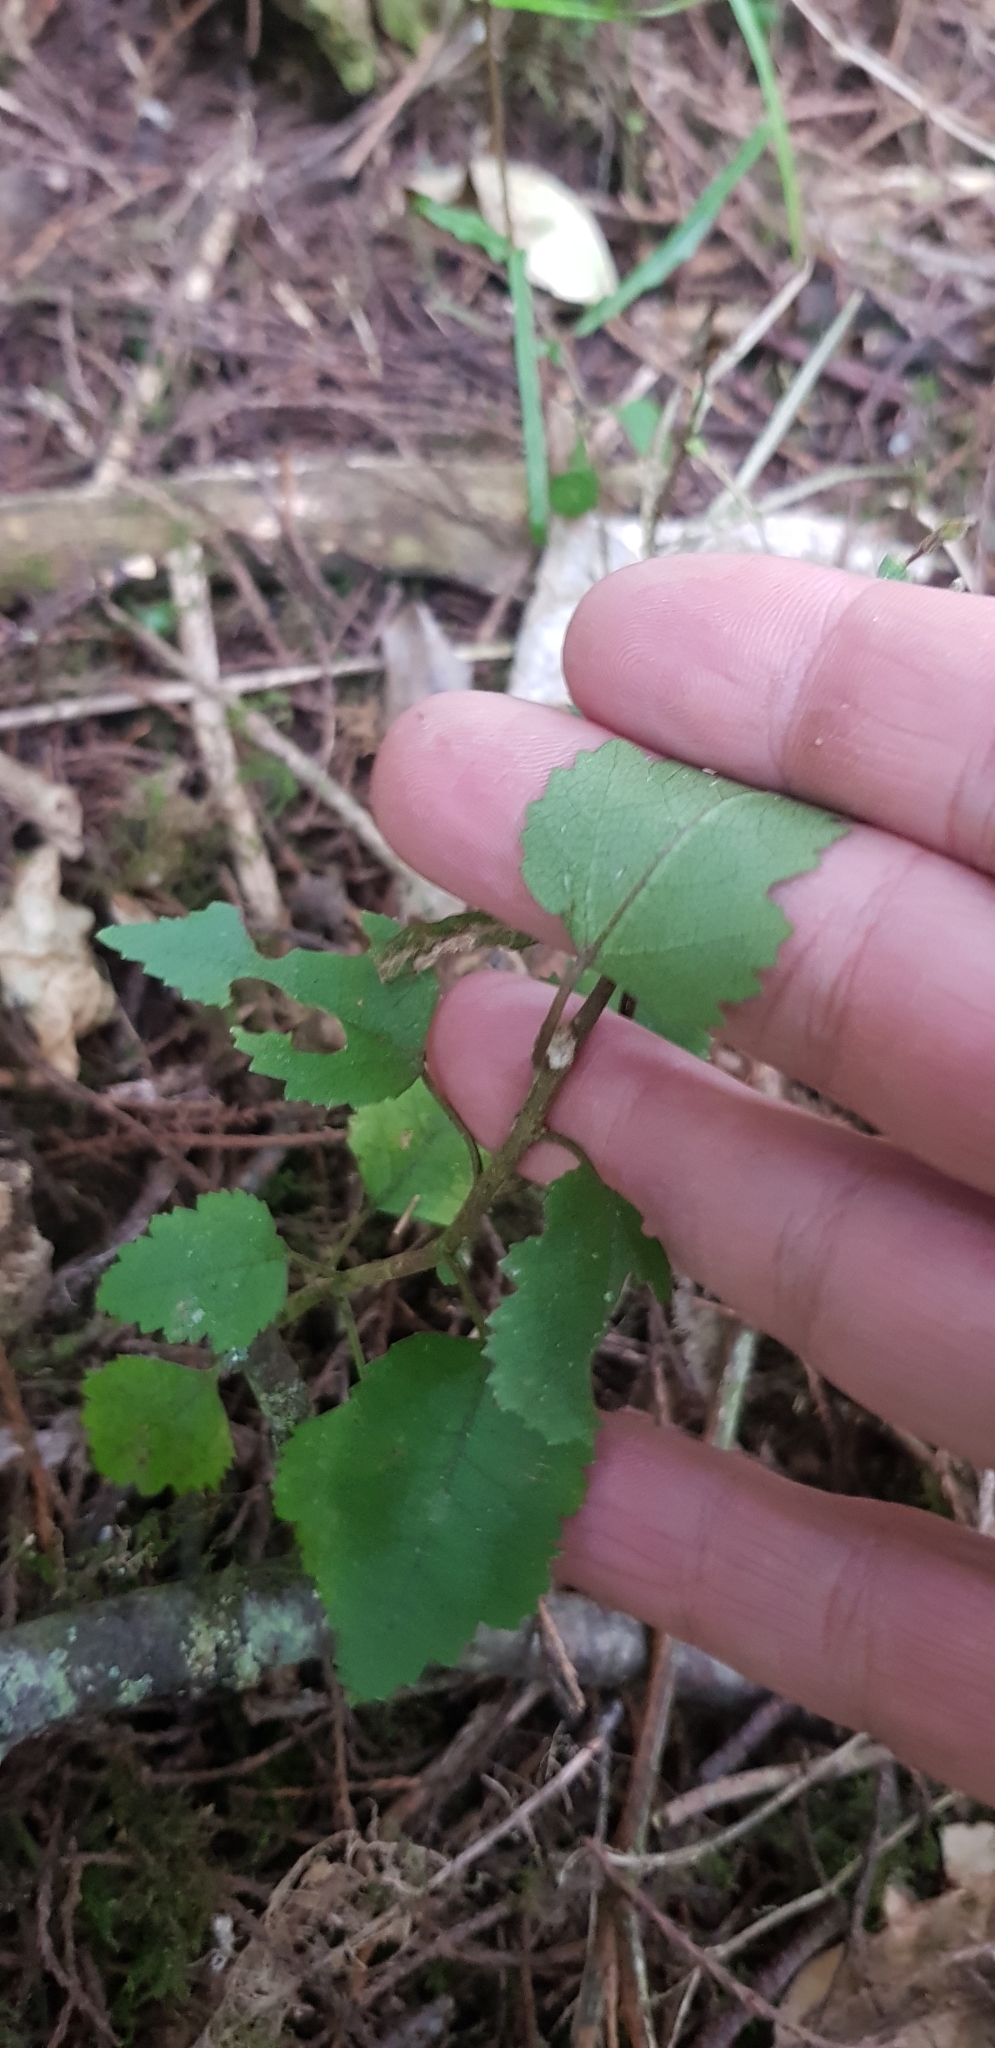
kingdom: Plantae
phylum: Tracheophyta
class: Magnoliopsida
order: Malvales
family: Malvaceae
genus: Plagianthus
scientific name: Plagianthus regius
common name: Manatu
